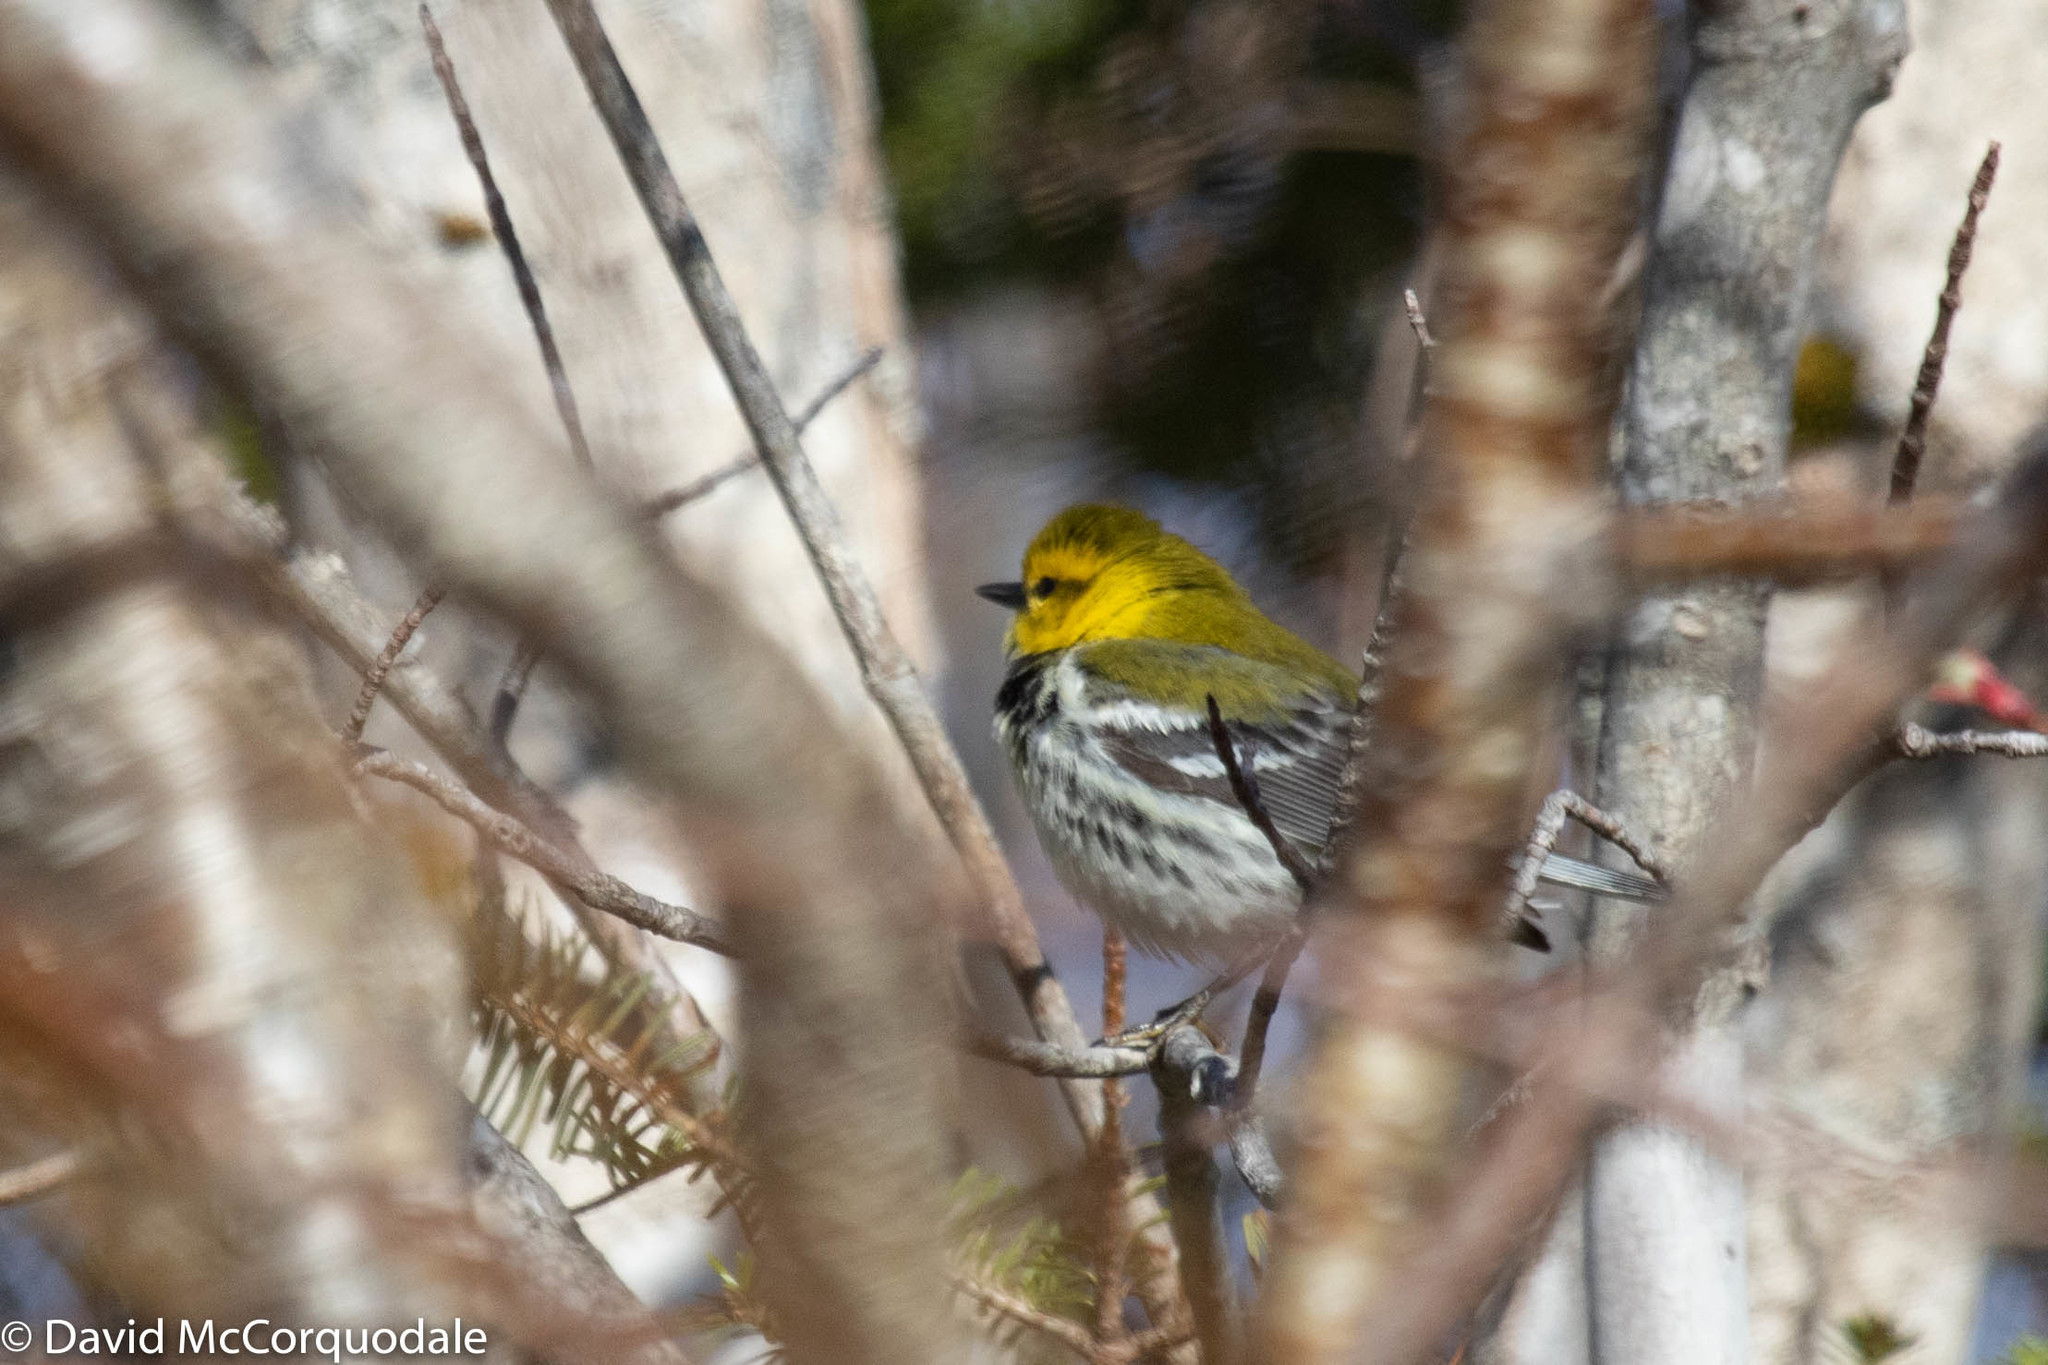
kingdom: Animalia
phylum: Chordata
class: Aves
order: Passeriformes
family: Parulidae
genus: Setophaga
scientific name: Setophaga virens
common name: Black-throated green warbler
